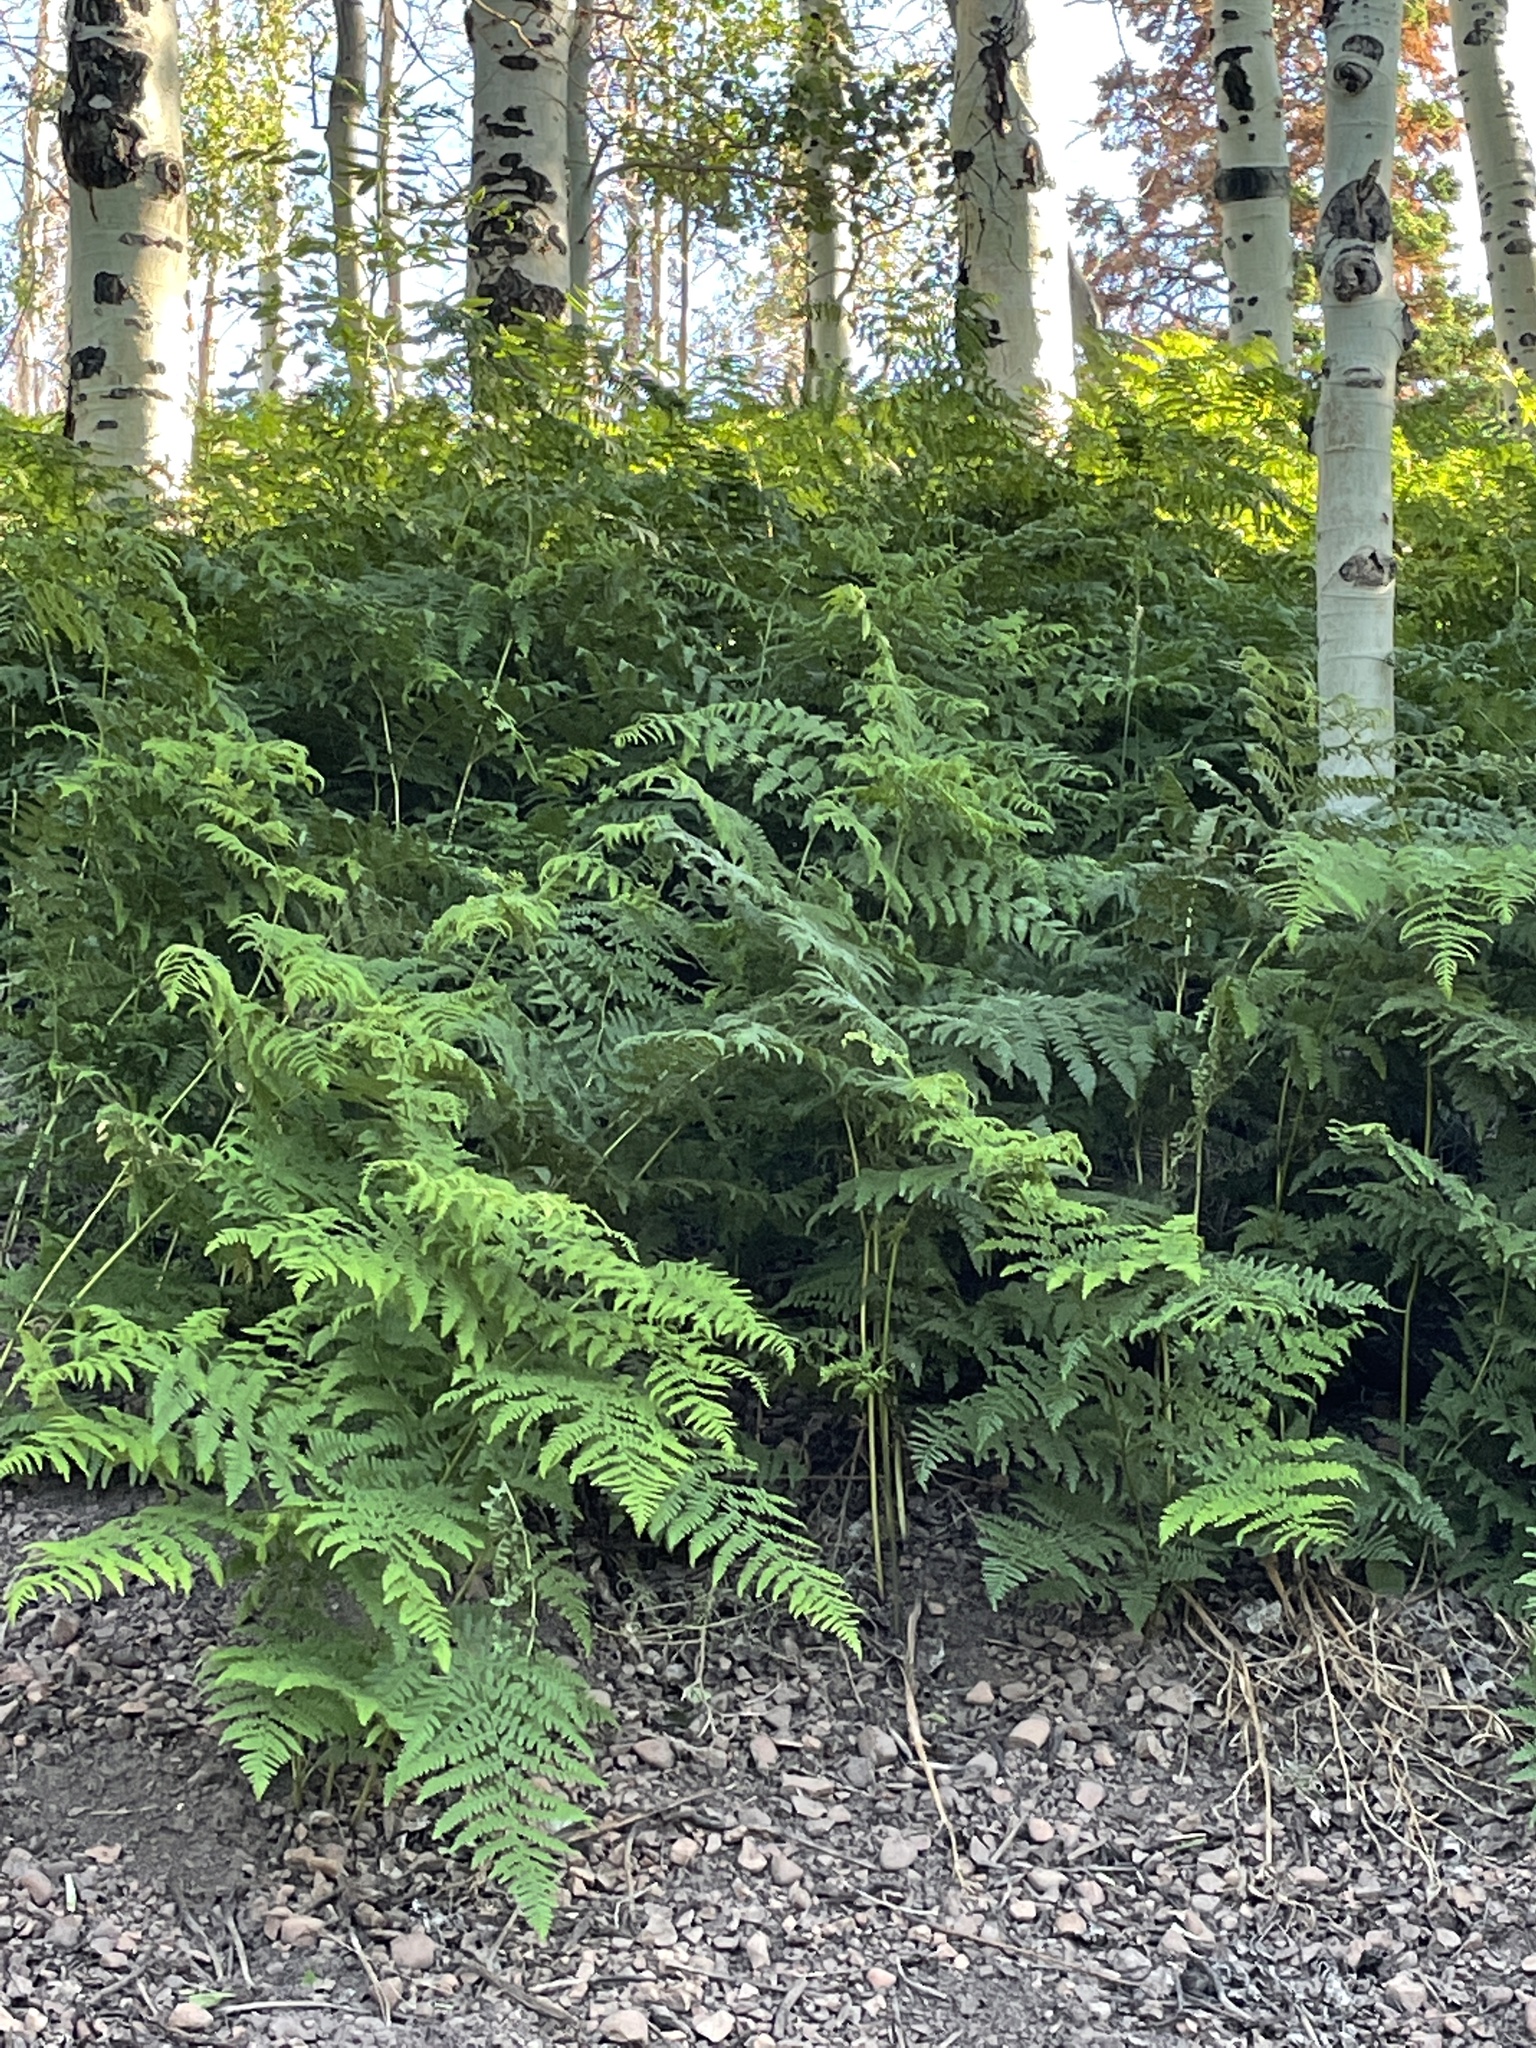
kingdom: Plantae
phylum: Tracheophyta
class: Polypodiopsida
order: Polypodiales
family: Dennstaedtiaceae
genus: Pteridium
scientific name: Pteridium aquilinum
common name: Bracken
